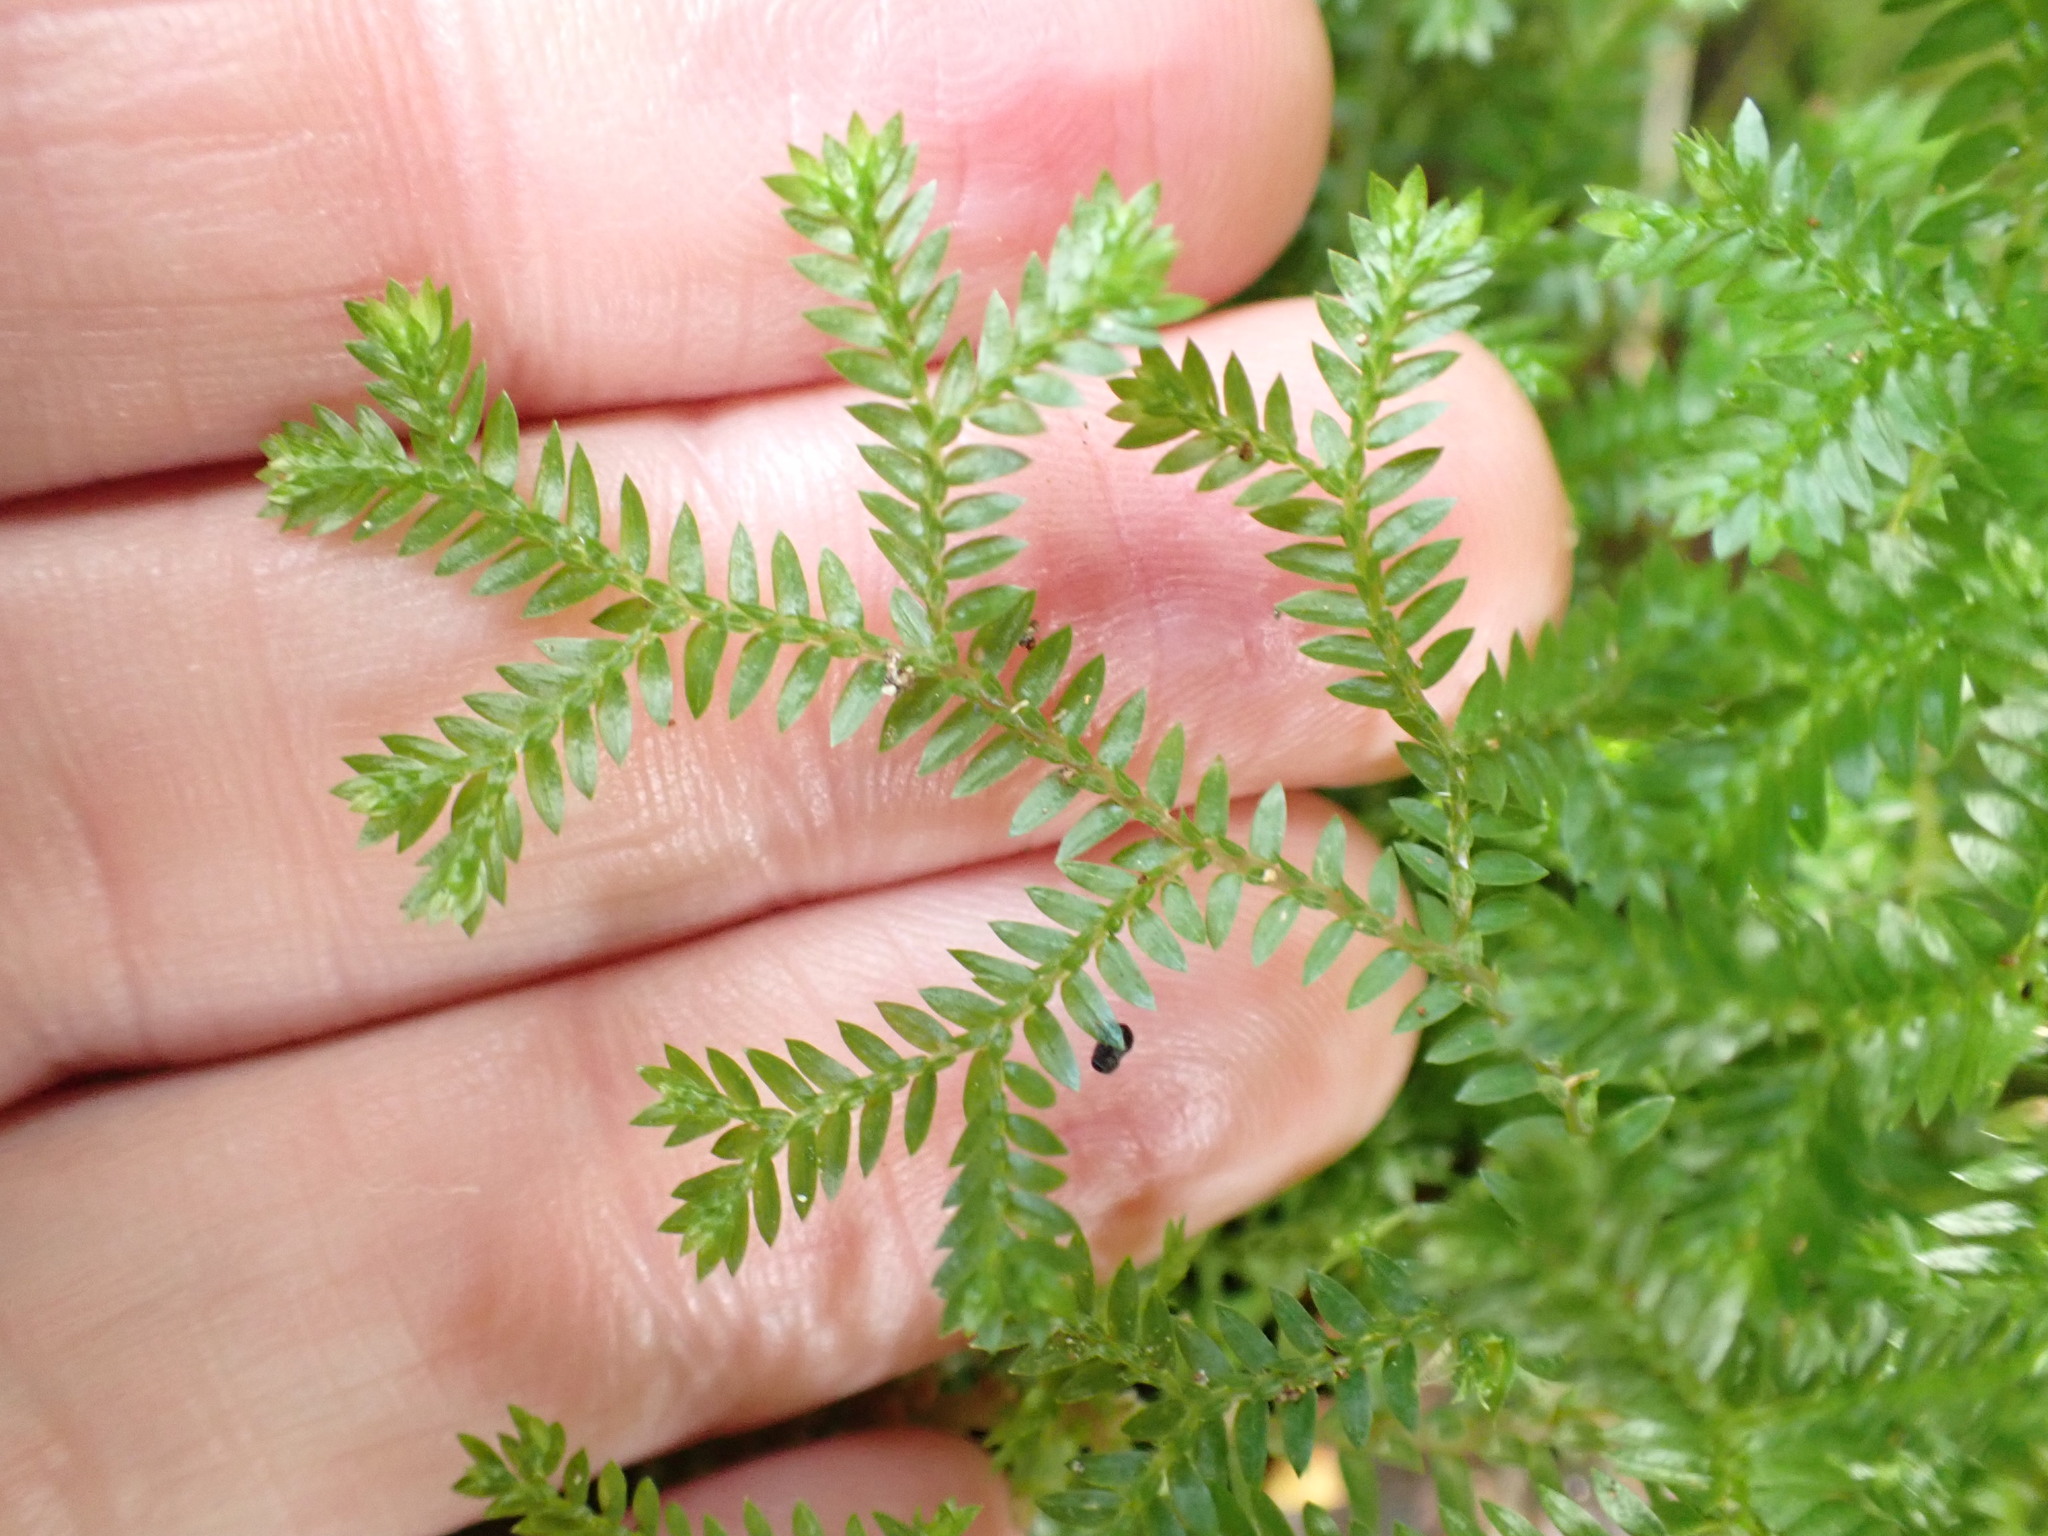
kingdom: Plantae
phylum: Tracheophyta
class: Lycopodiopsida
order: Selaginellales
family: Selaginellaceae
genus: Selaginella
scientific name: Selaginella kraussiana
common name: Krauss' spikemoss
